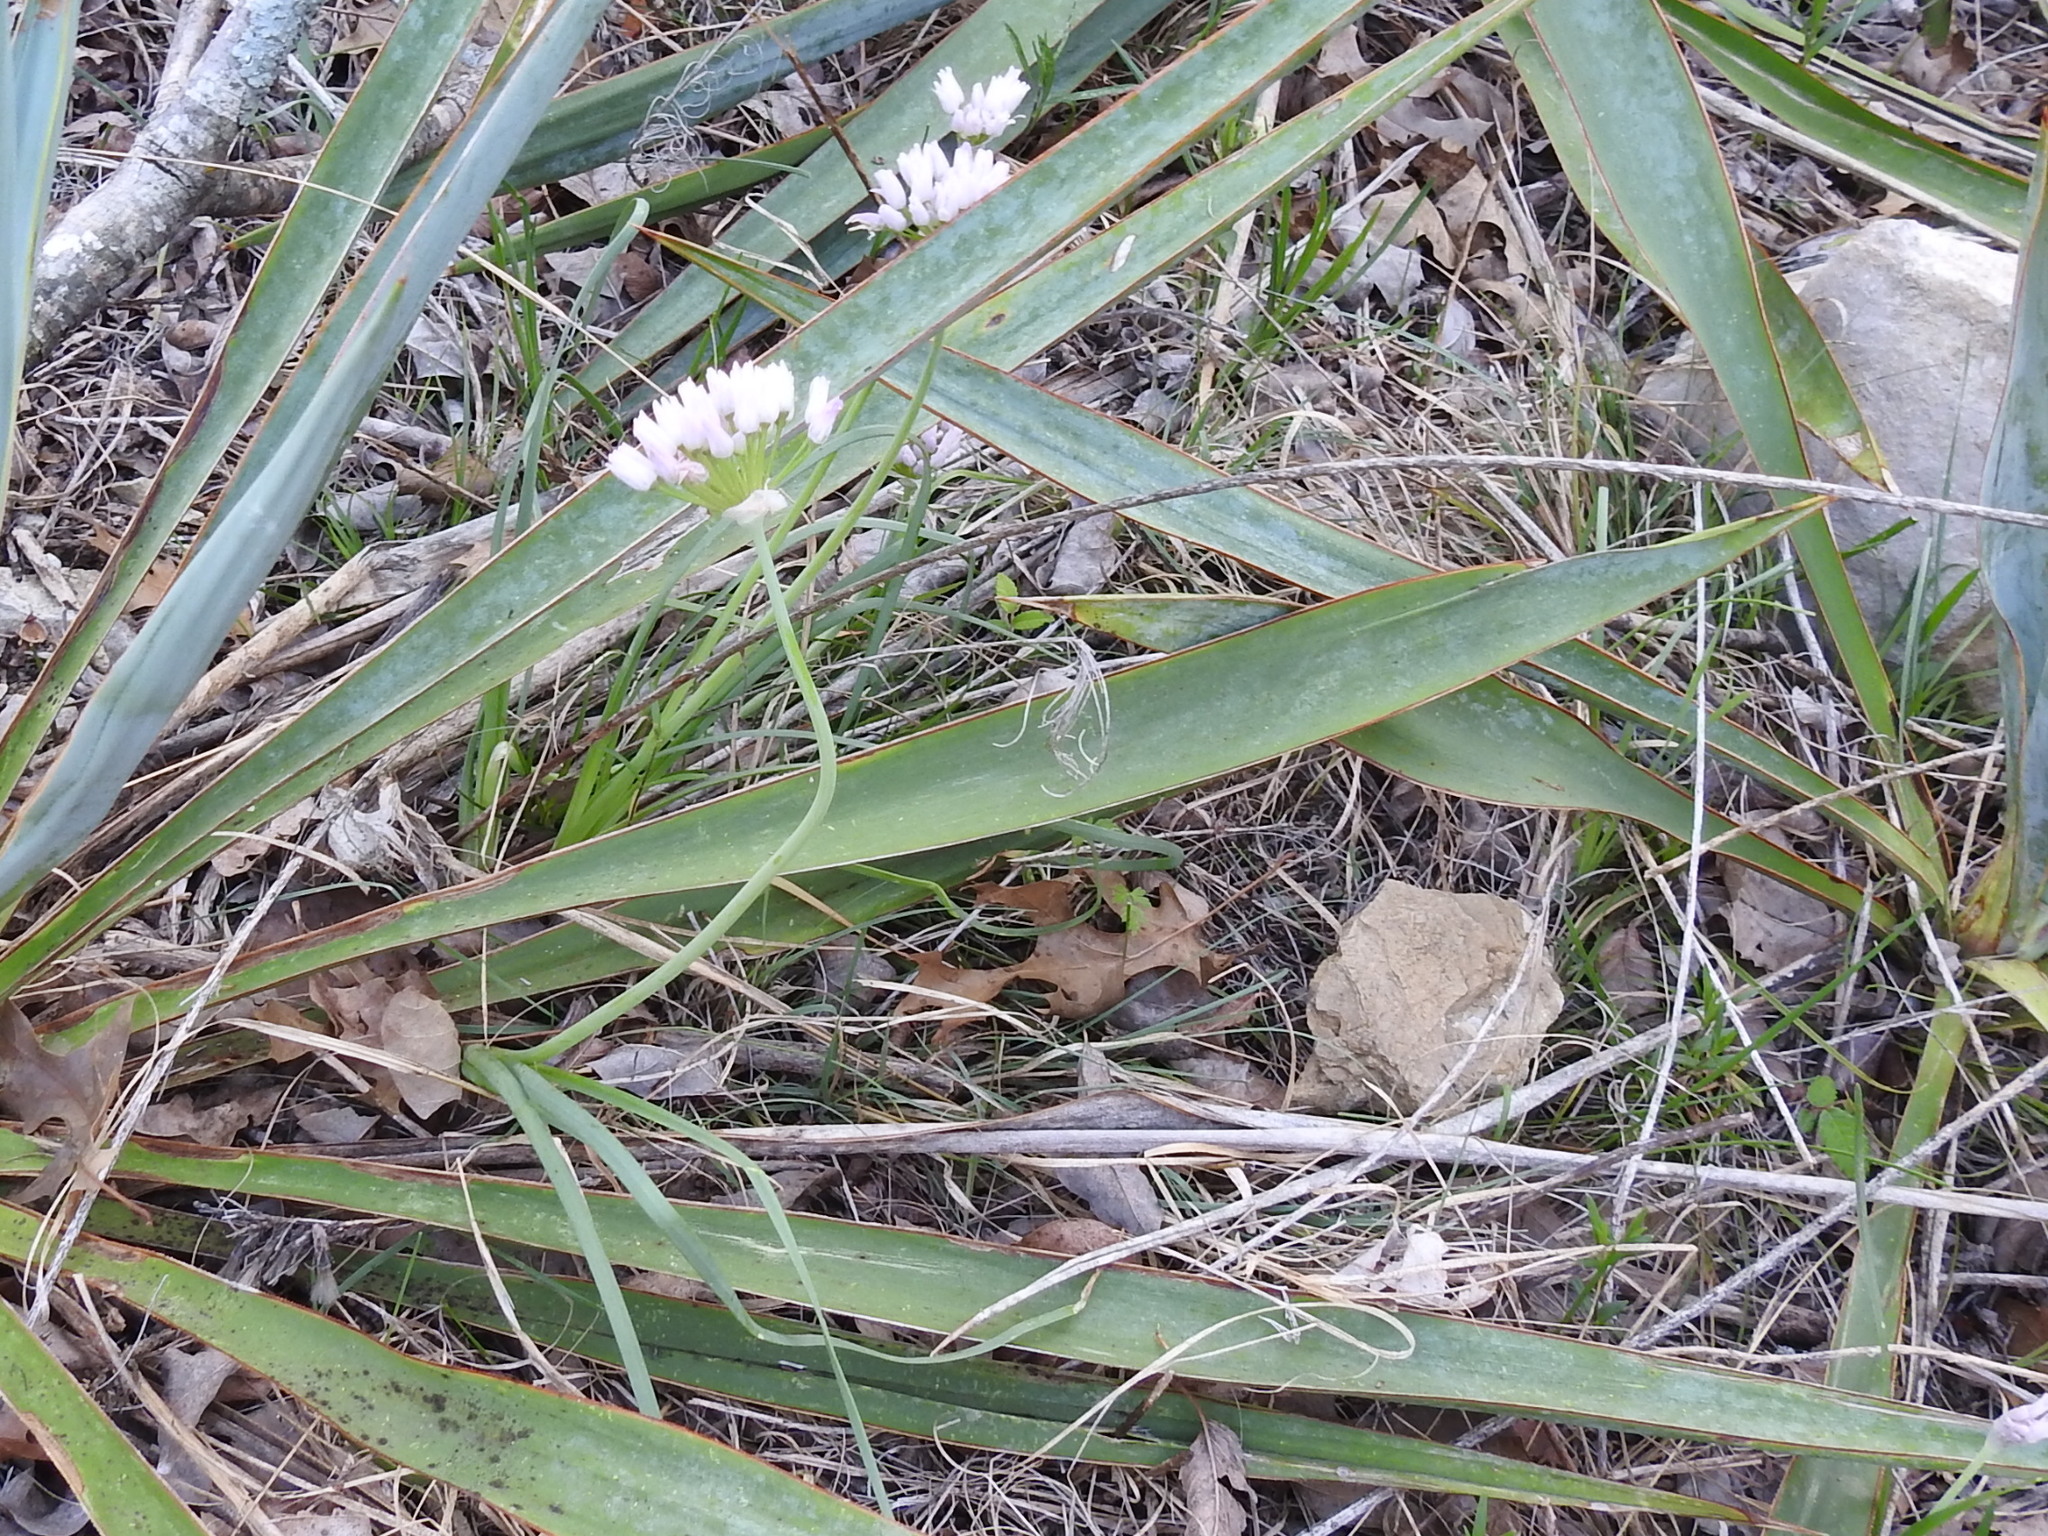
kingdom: Plantae
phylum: Tracheophyta
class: Liliopsida
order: Asparagales
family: Amaryllidaceae
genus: Allium
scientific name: Allium drummondii
